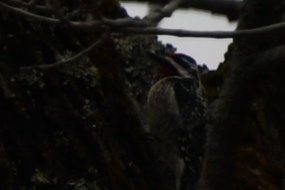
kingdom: Animalia
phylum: Chordata
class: Aves
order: Piciformes
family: Picidae
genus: Sphyrapicus
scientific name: Sphyrapicus varius
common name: Yellow-bellied sapsucker
